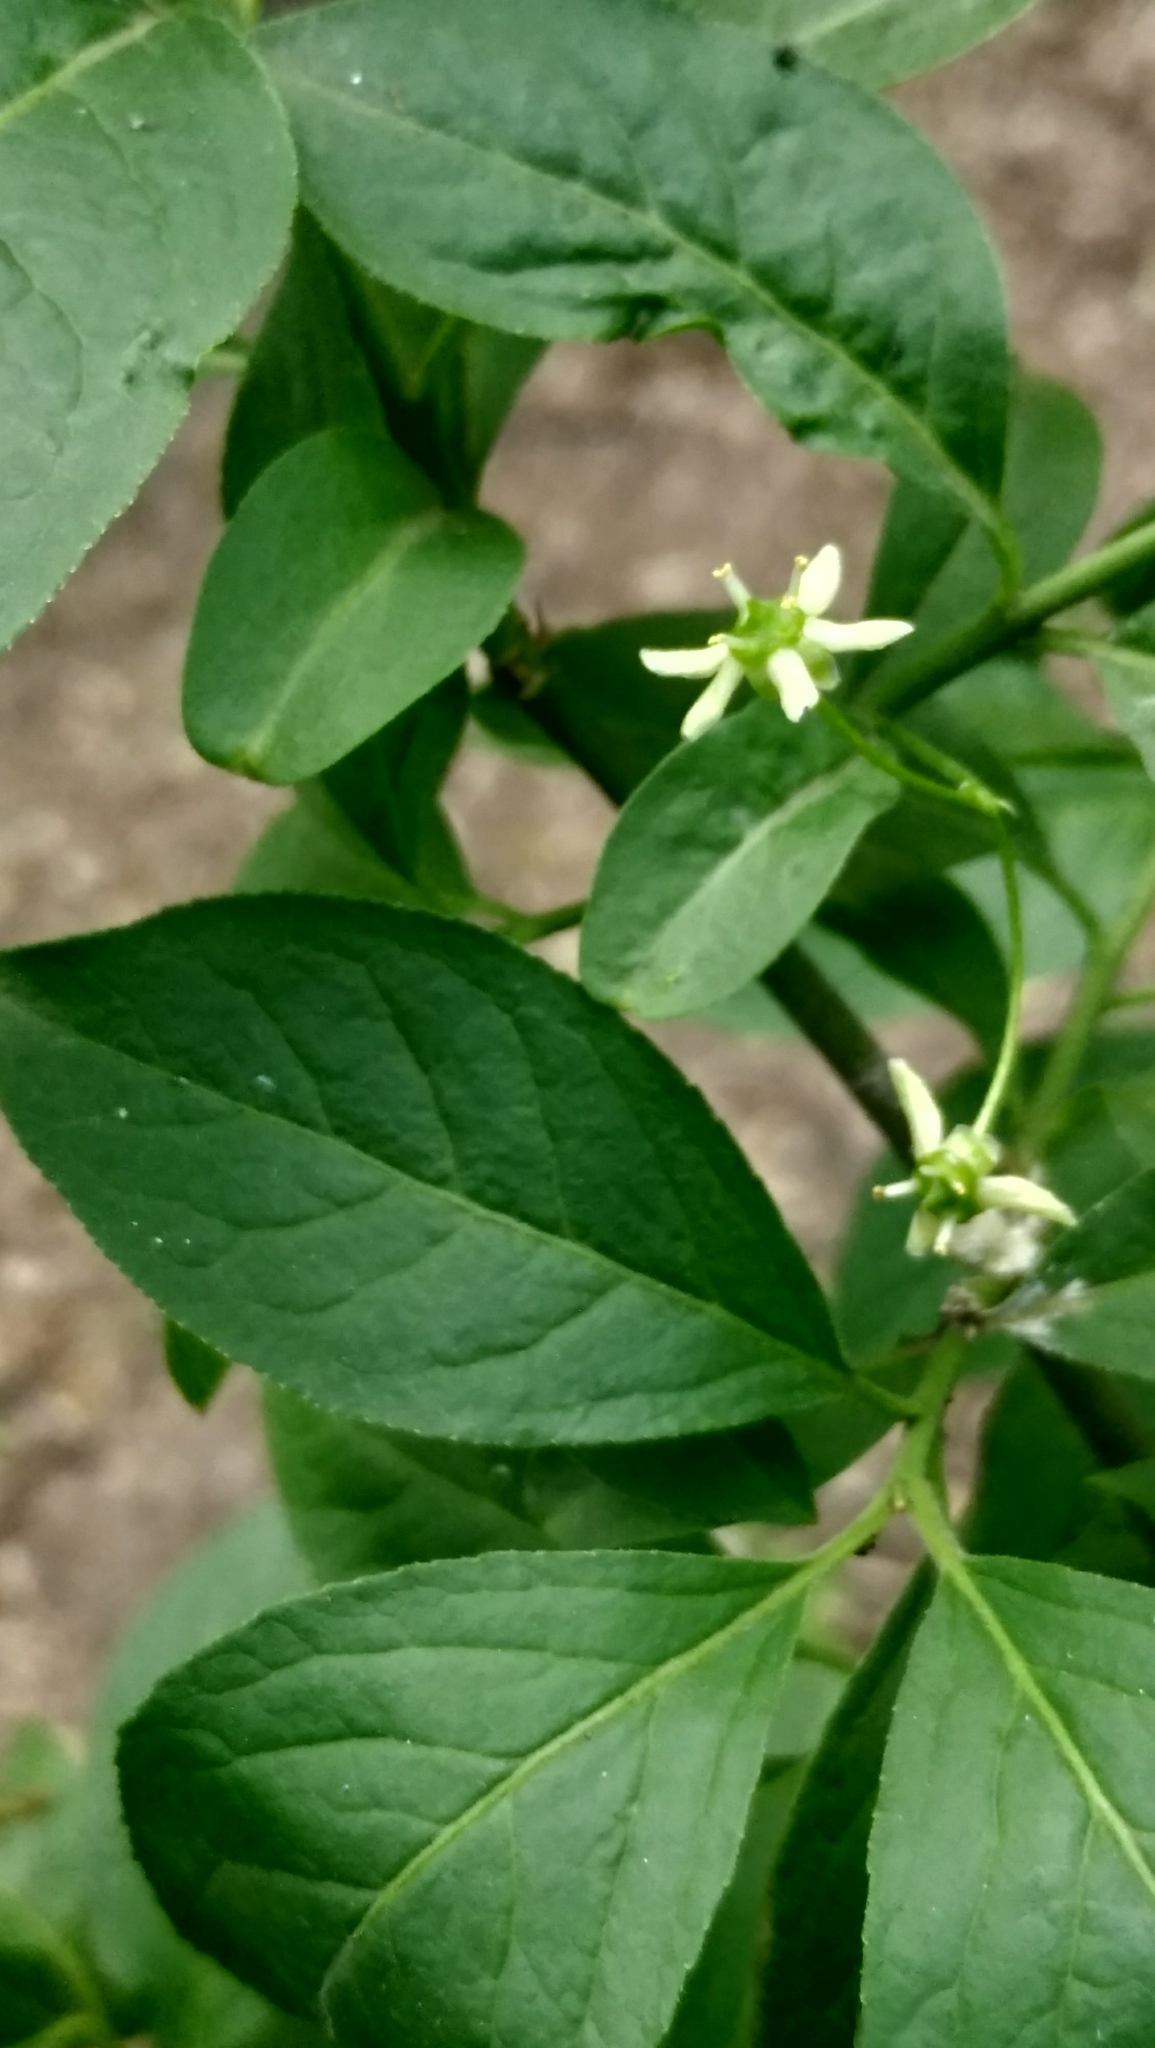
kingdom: Plantae
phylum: Tracheophyta
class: Magnoliopsida
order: Celastrales
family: Celastraceae
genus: Euonymus
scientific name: Euonymus europaeus
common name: Spindle
